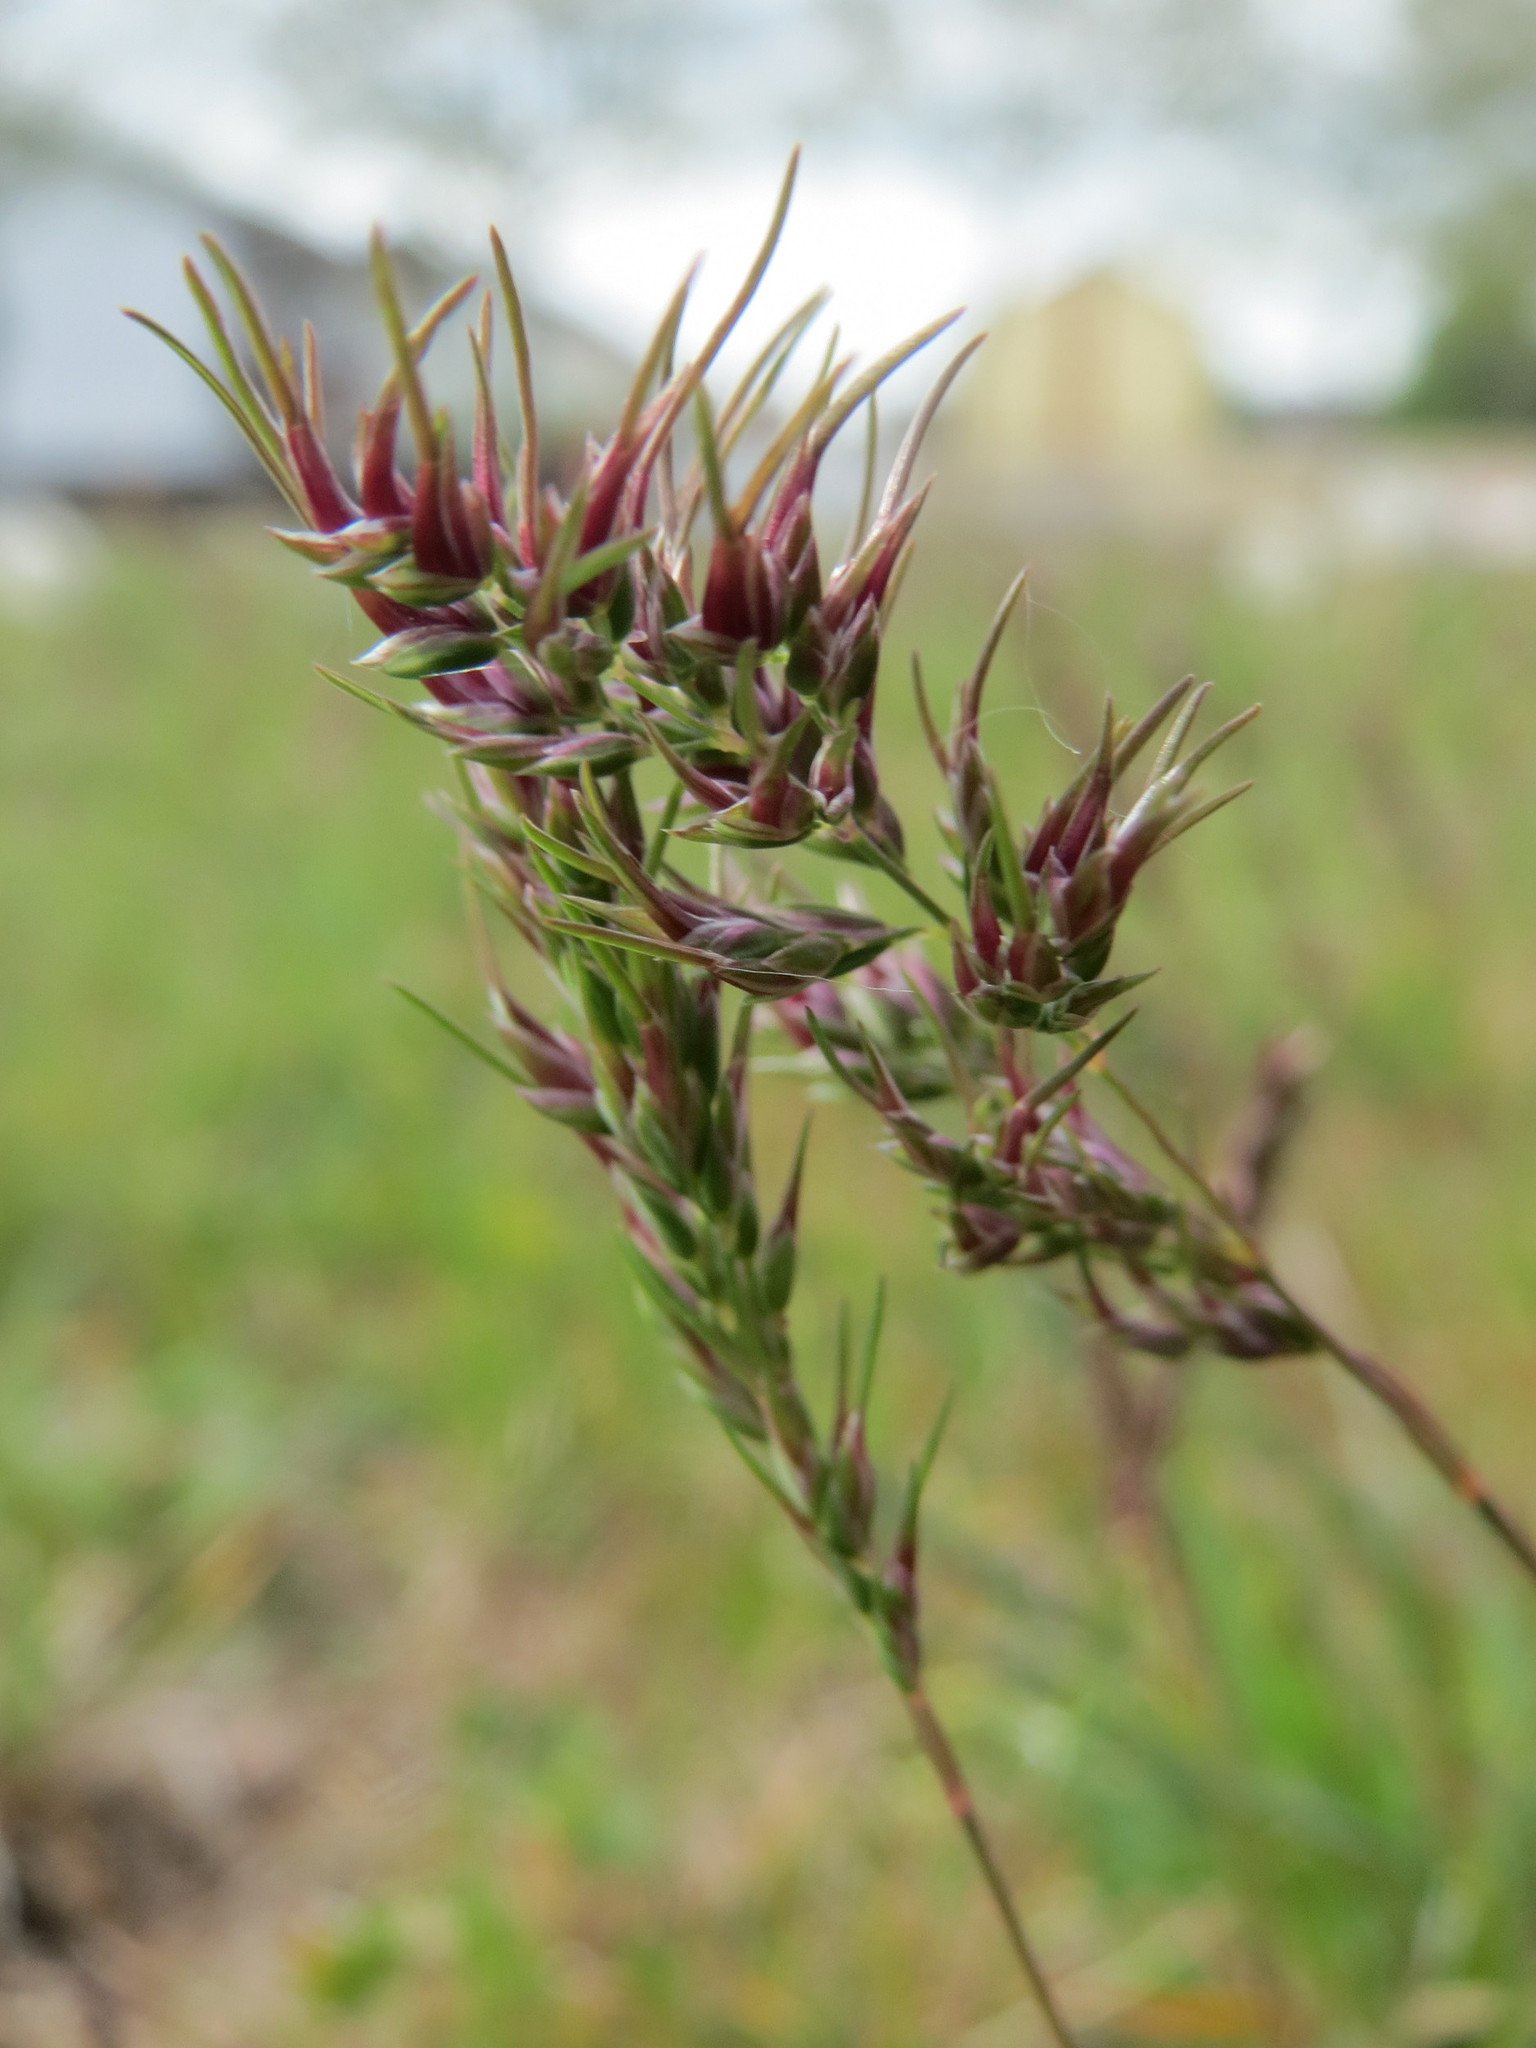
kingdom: Plantae
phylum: Tracheophyta
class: Liliopsida
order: Poales
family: Poaceae
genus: Poa
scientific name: Poa bulbosa
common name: Bulbous bluegrass
